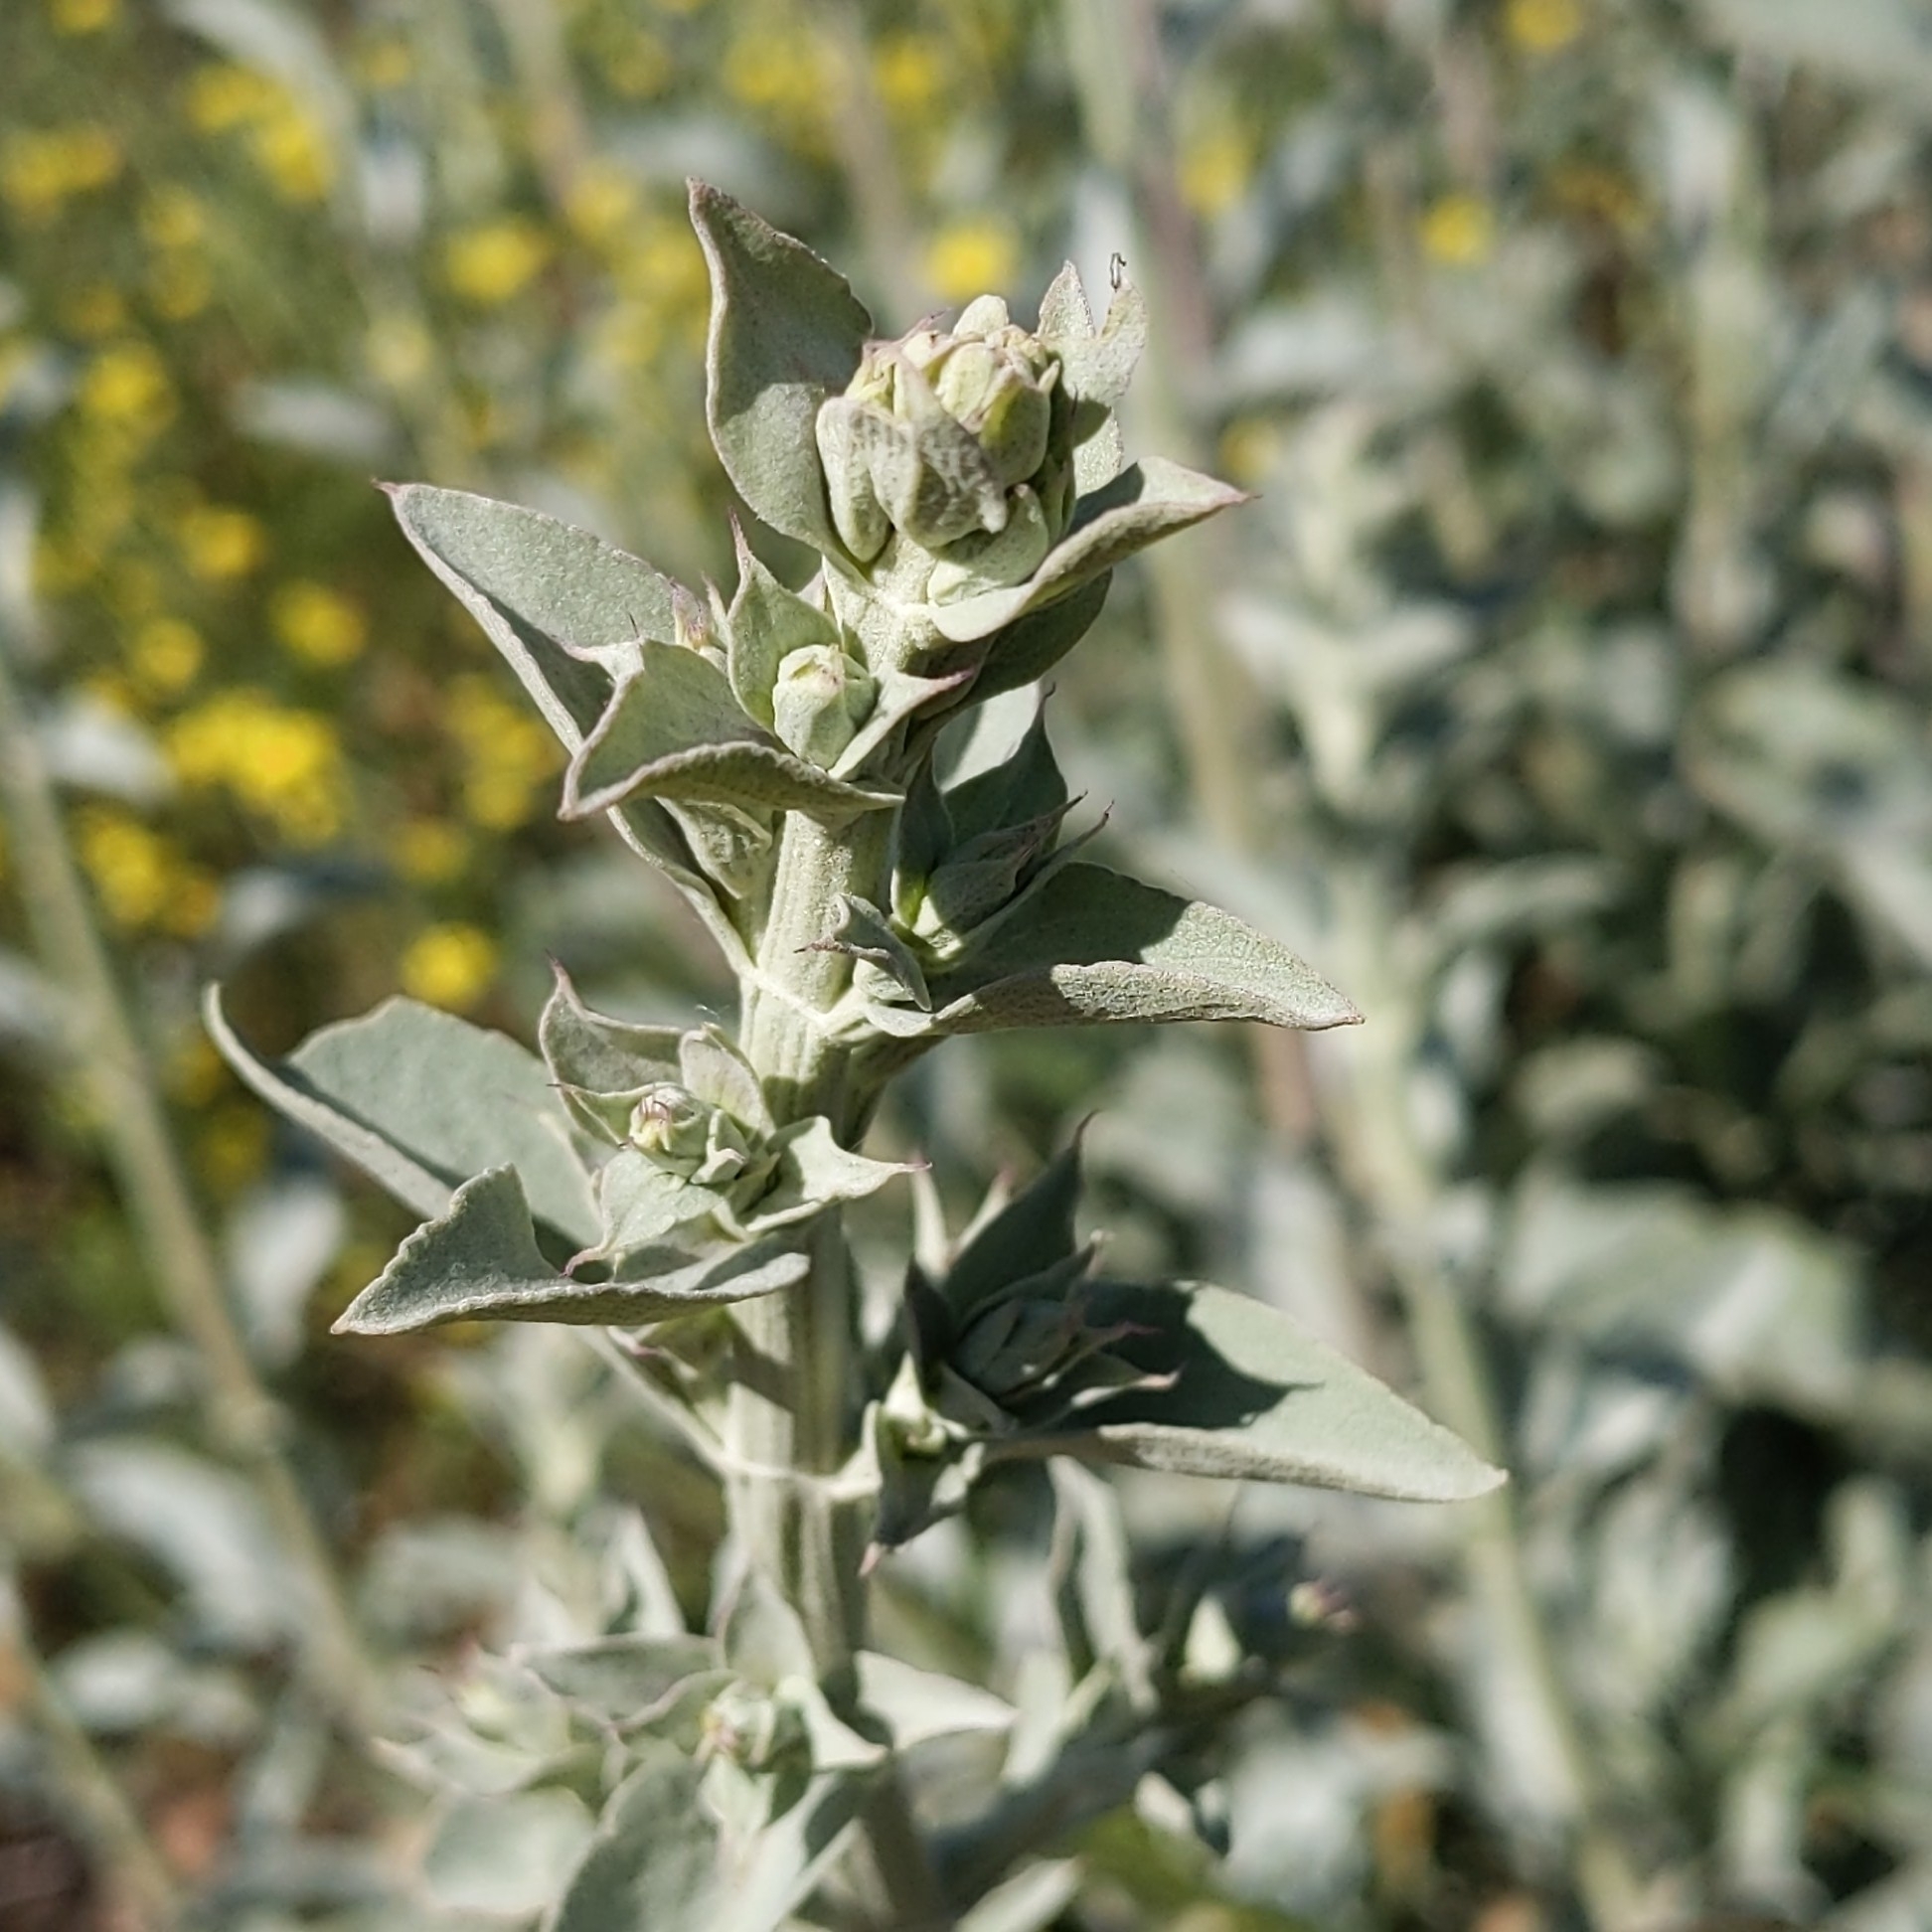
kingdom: Plantae
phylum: Tracheophyta
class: Magnoliopsida
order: Lamiales
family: Lamiaceae
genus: Salvia
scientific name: Salvia apiana
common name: White sage
